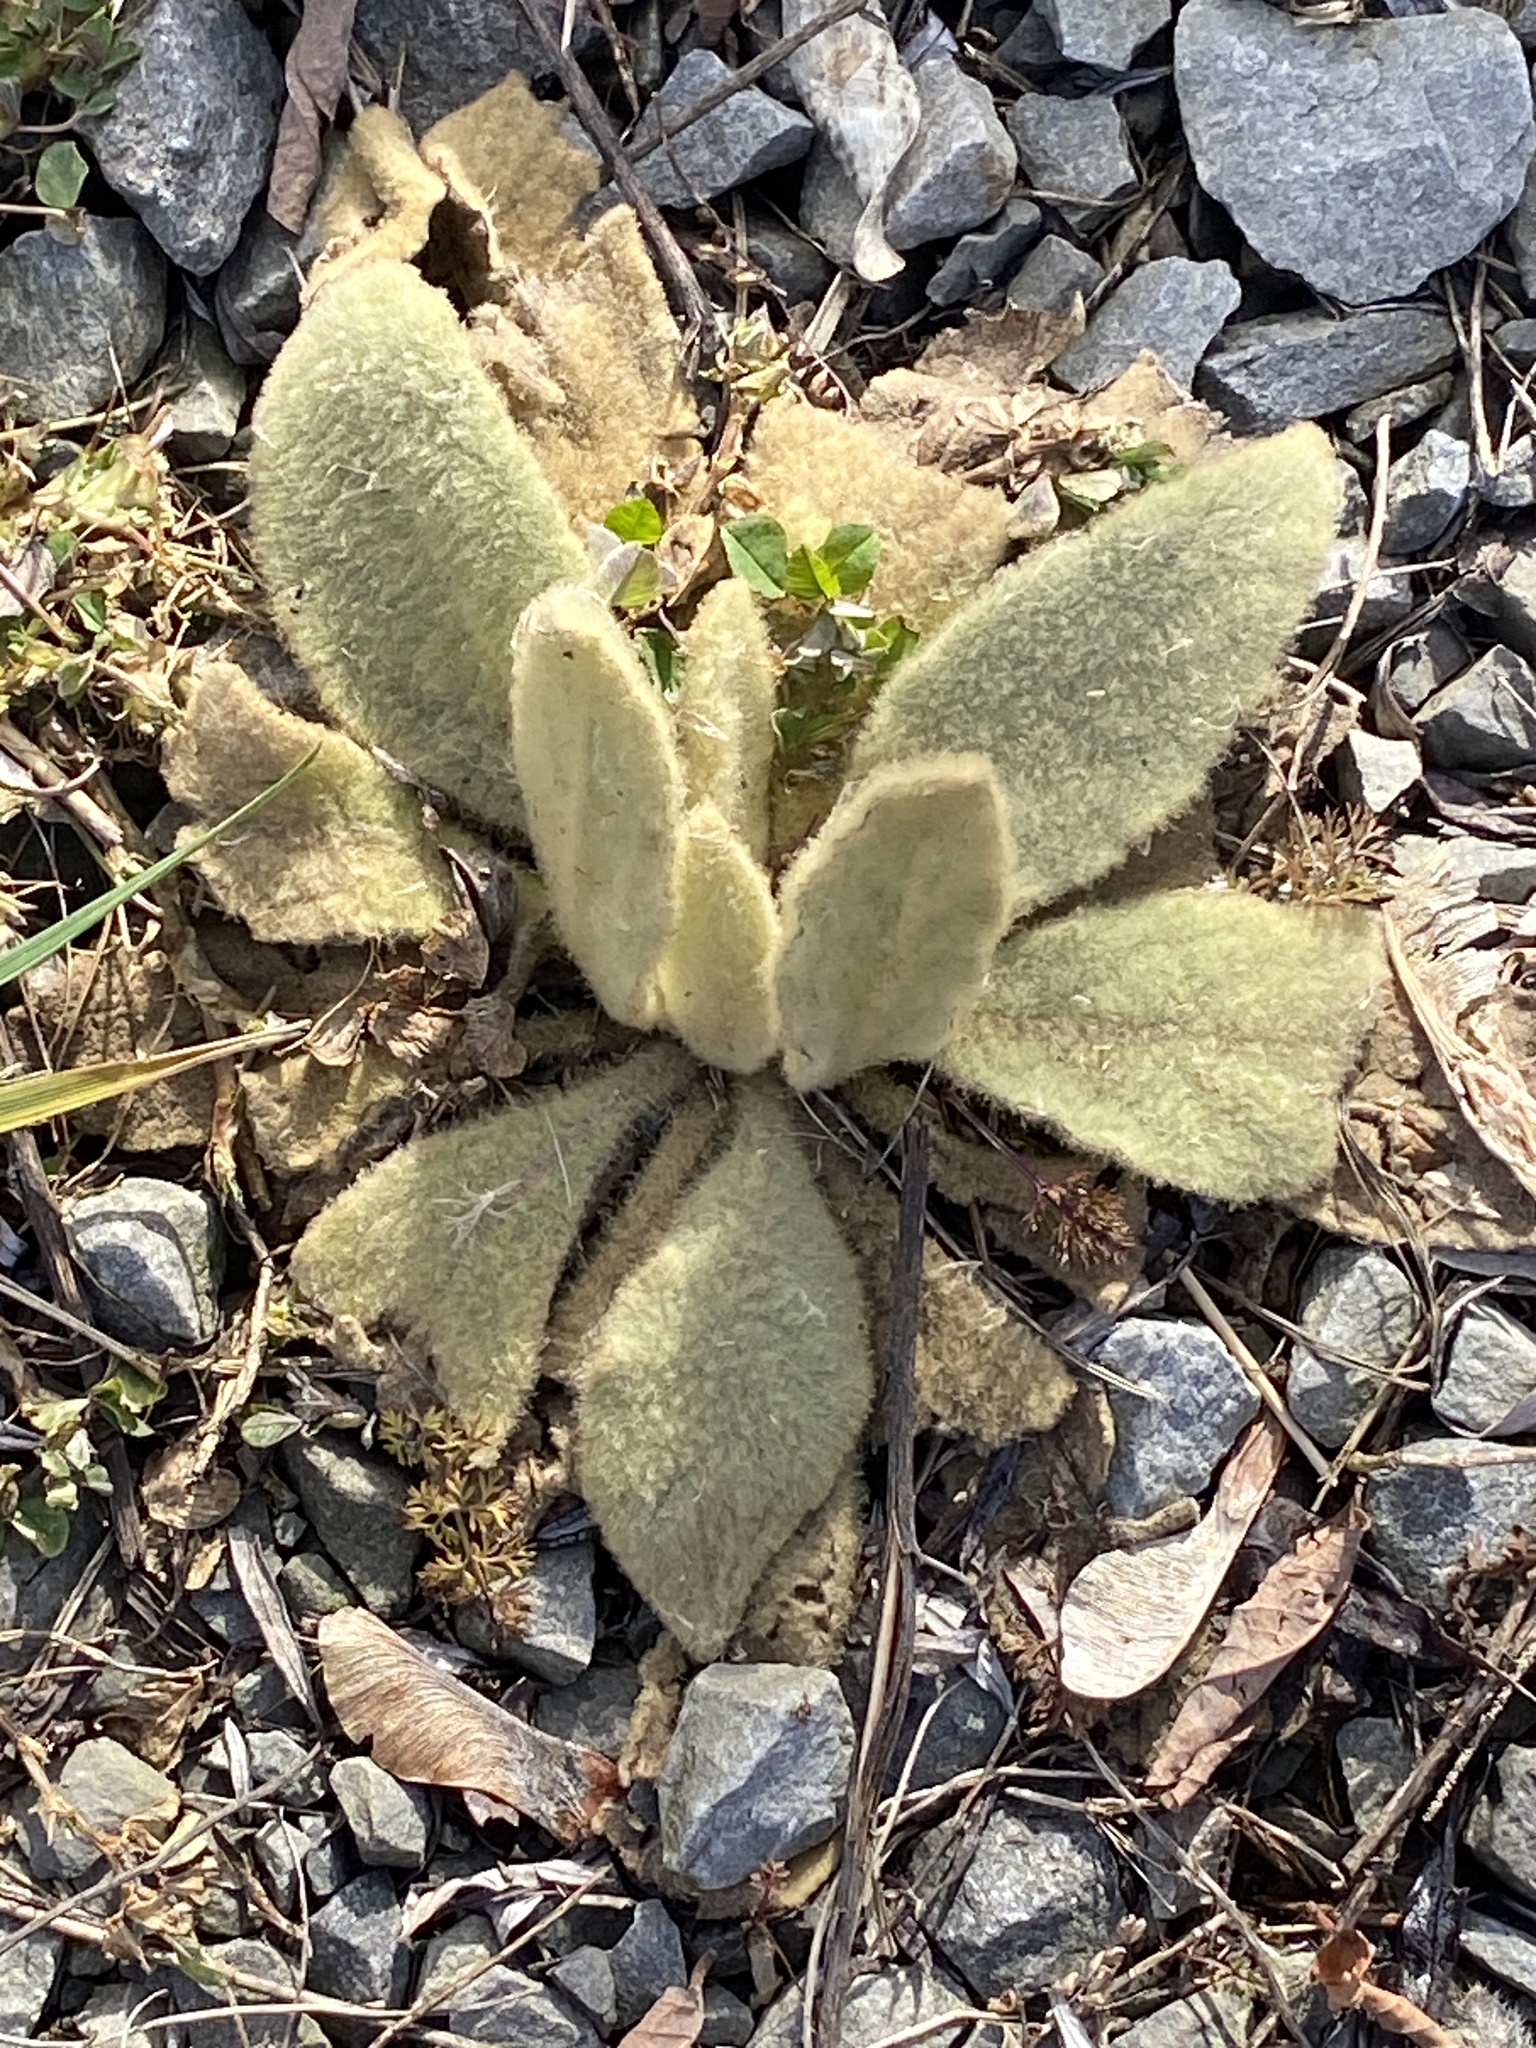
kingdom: Plantae
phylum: Tracheophyta
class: Magnoliopsida
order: Lamiales
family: Scrophulariaceae
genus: Verbascum
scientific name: Verbascum thapsus
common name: Common mullein
